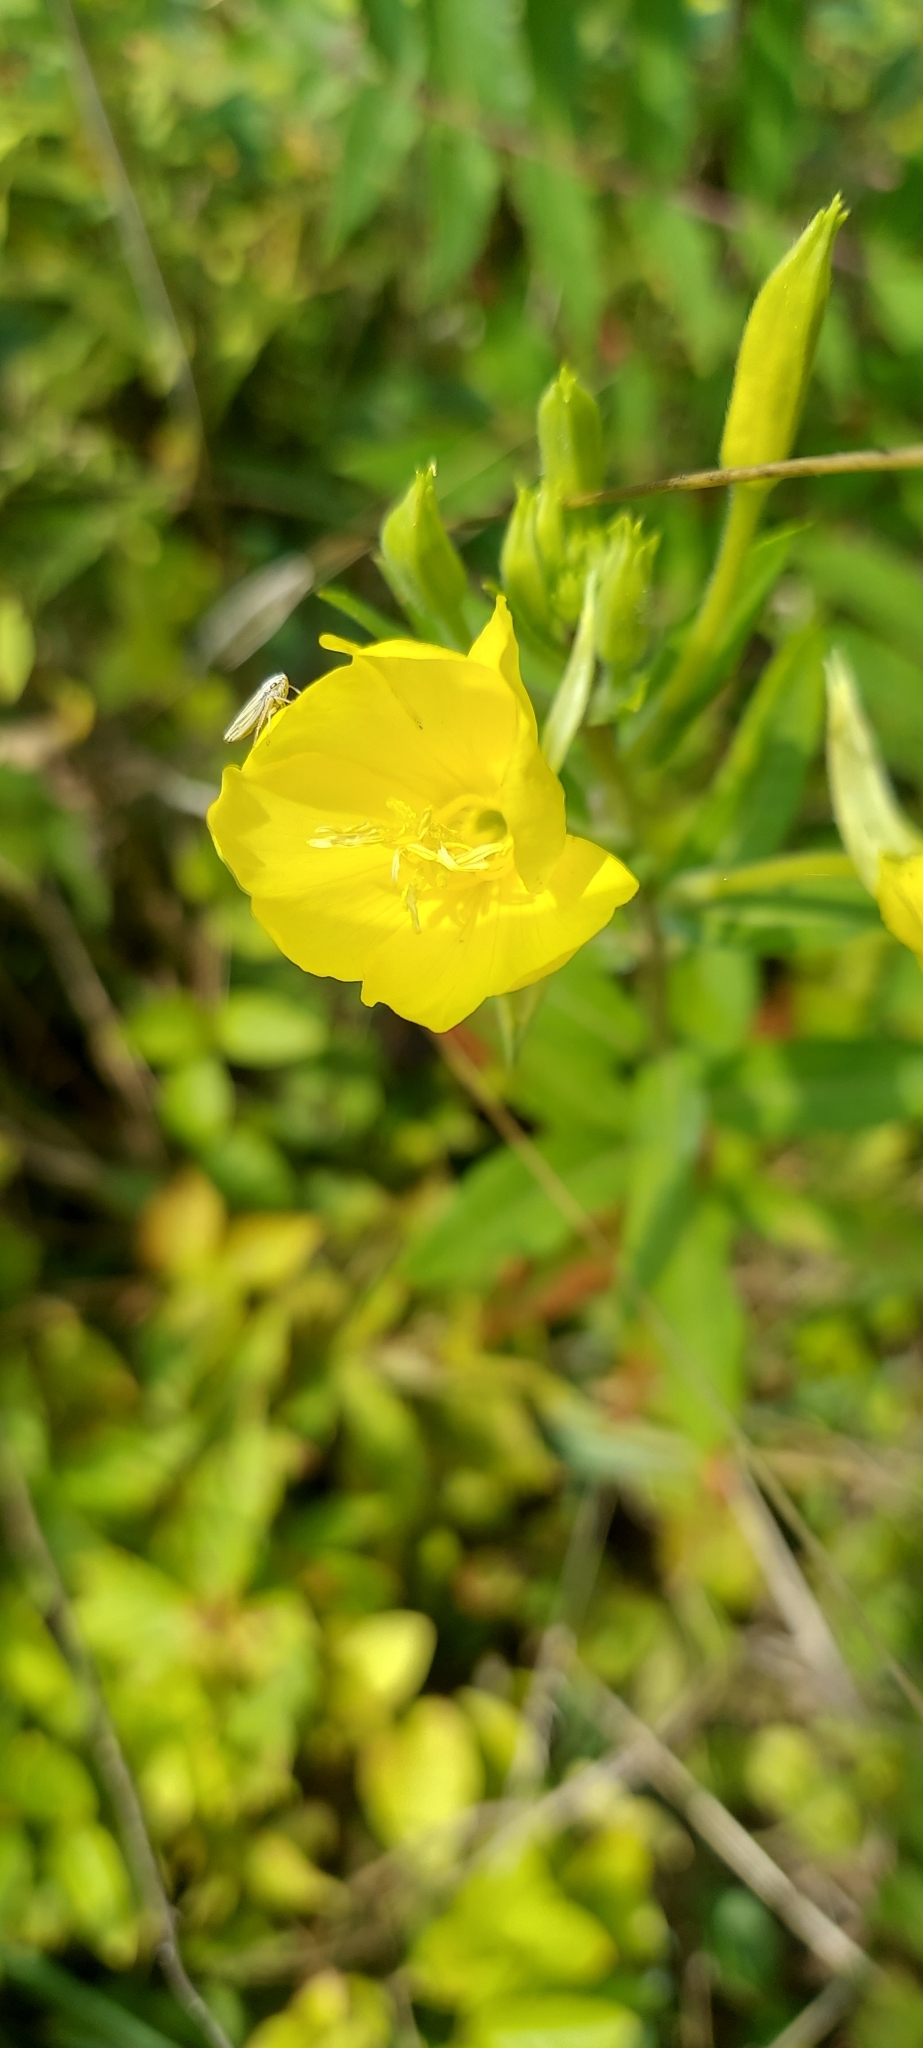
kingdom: Plantae
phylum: Tracheophyta
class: Magnoliopsida
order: Myrtales
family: Onagraceae
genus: Oenothera
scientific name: Oenothera biennis
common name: Common evening-primrose
